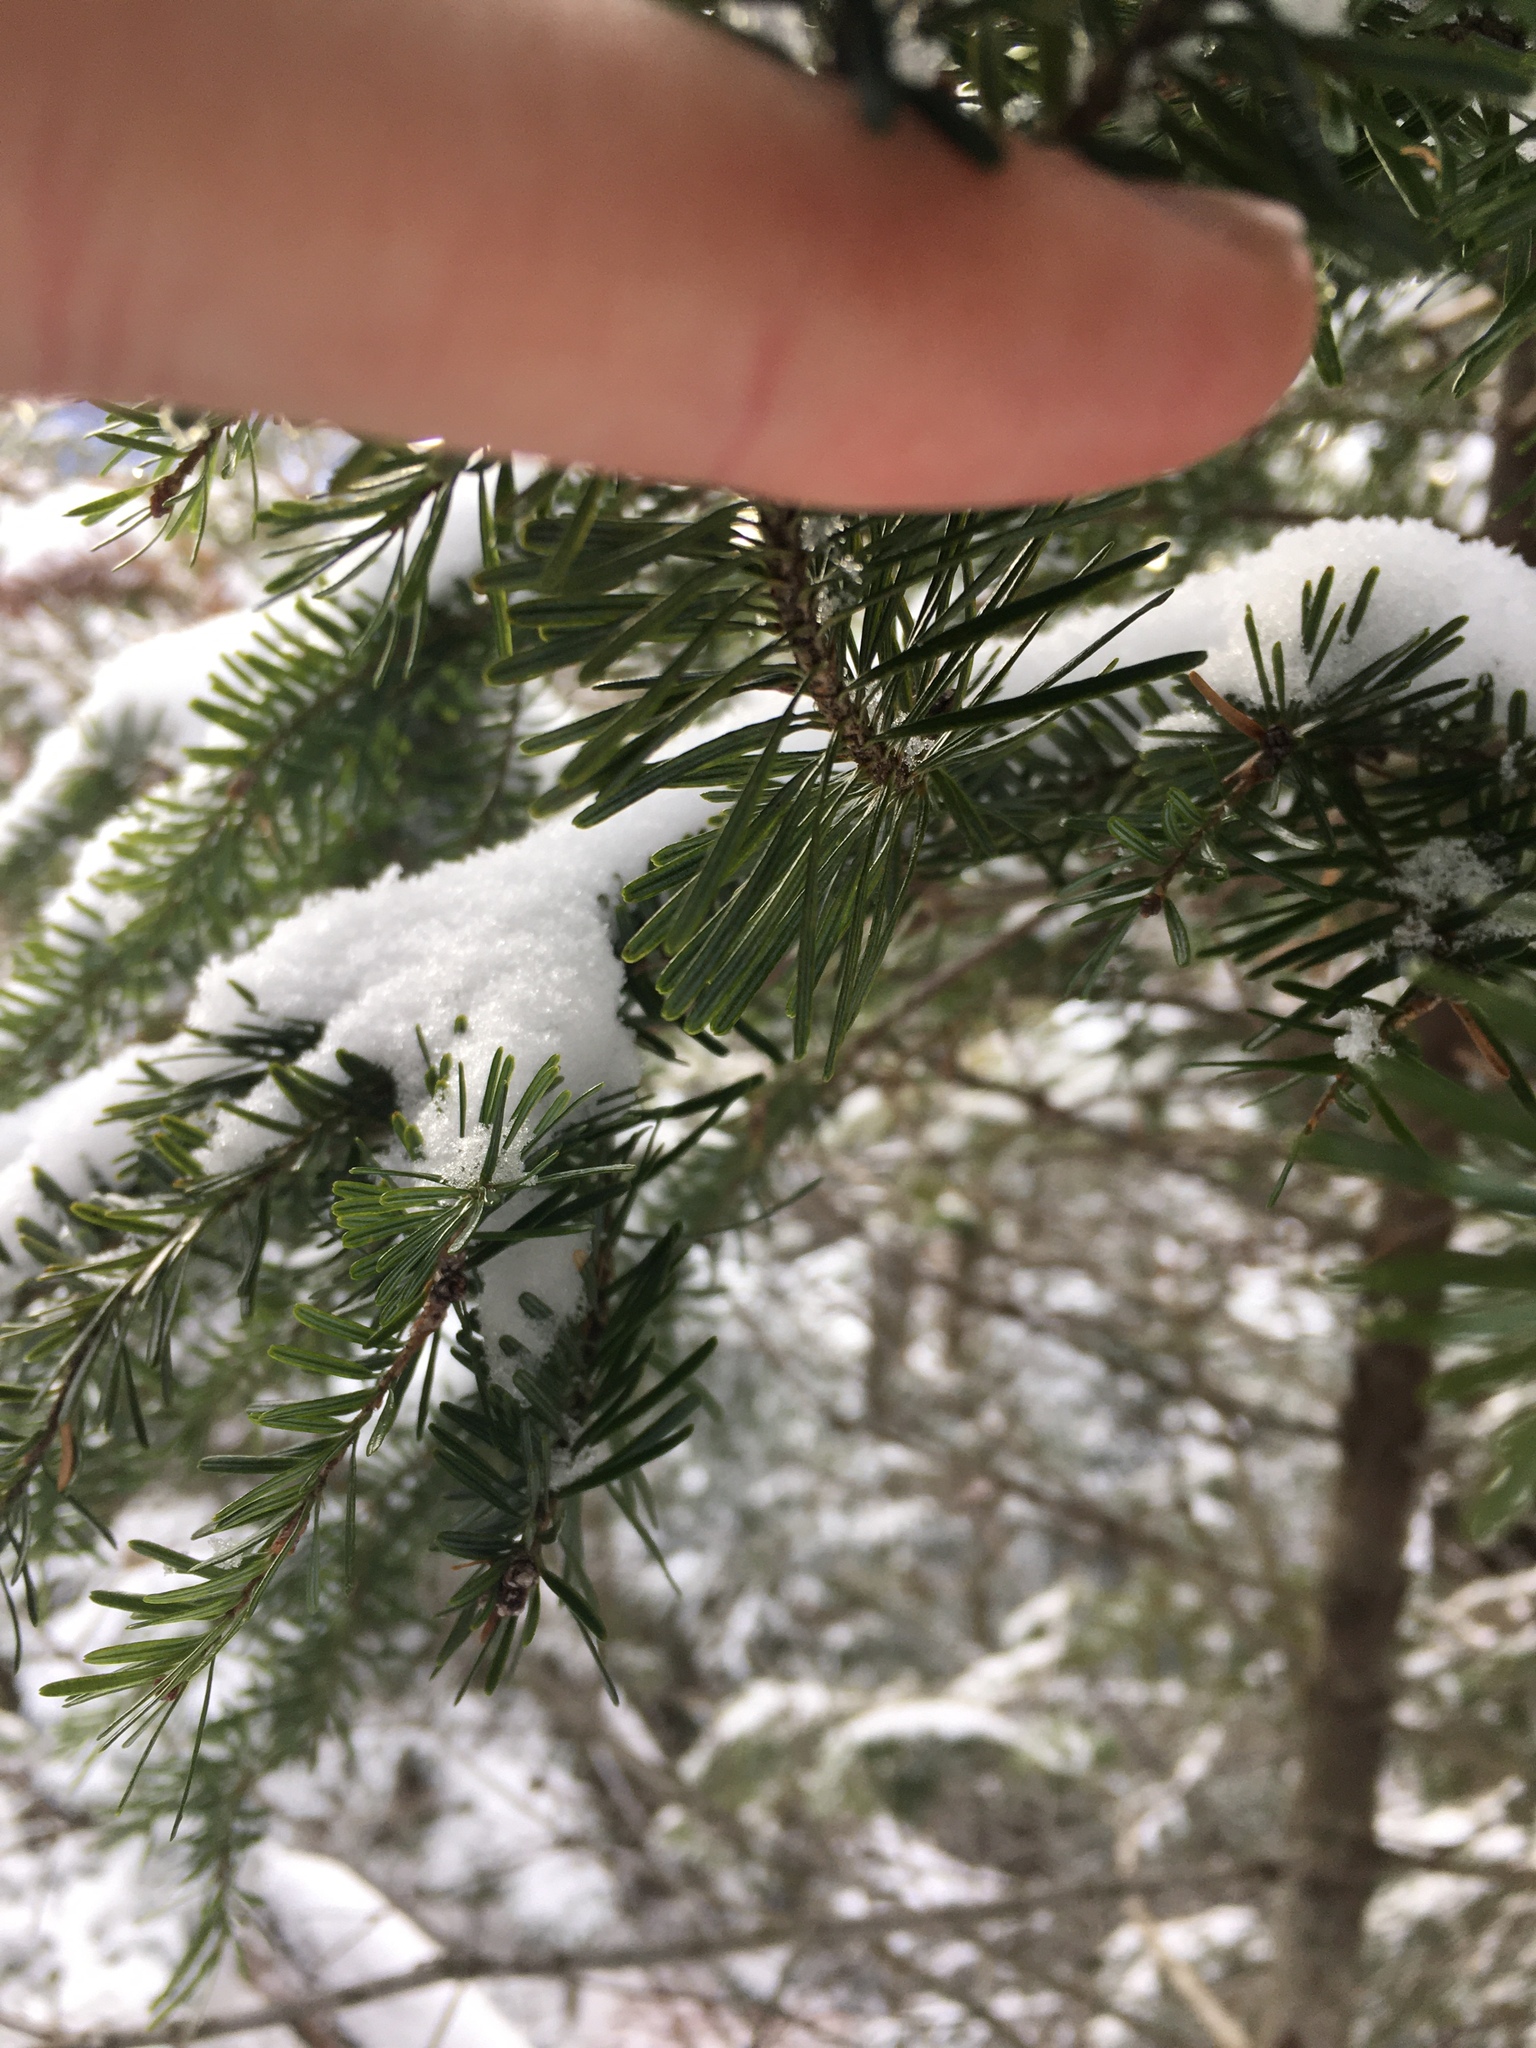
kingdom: Plantae
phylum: Tracheophyta
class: Pinopsida
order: Pinales
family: Pinaceae
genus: Abies
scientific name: Abies balsamea
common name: Balsam fir
